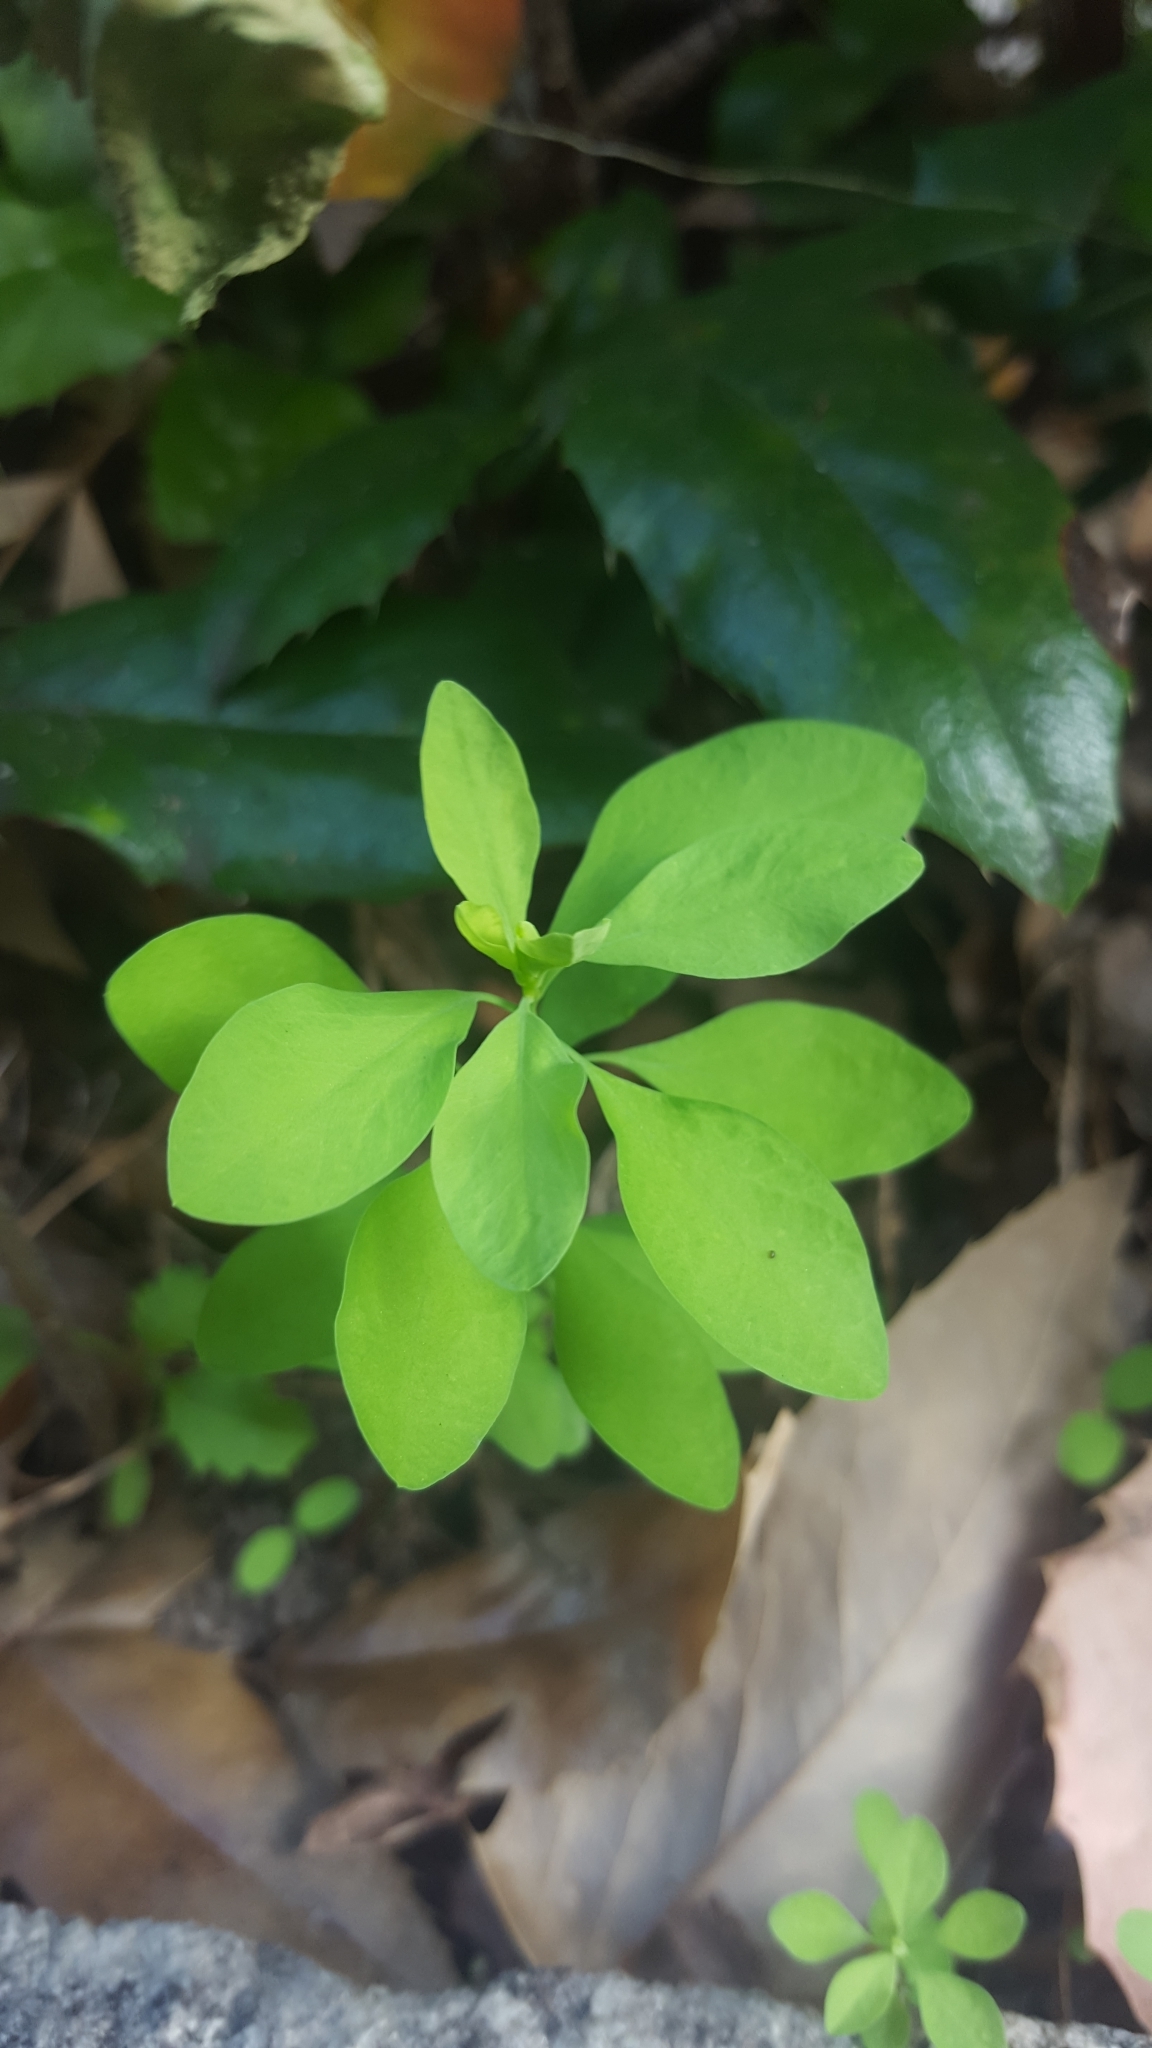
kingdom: Plantae
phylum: Tracheophyta
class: Magnoliopsida
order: Malpighiales
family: Euphorbiaceae
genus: Euphorbia
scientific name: Euphorbia peplus
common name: Petty spurge
